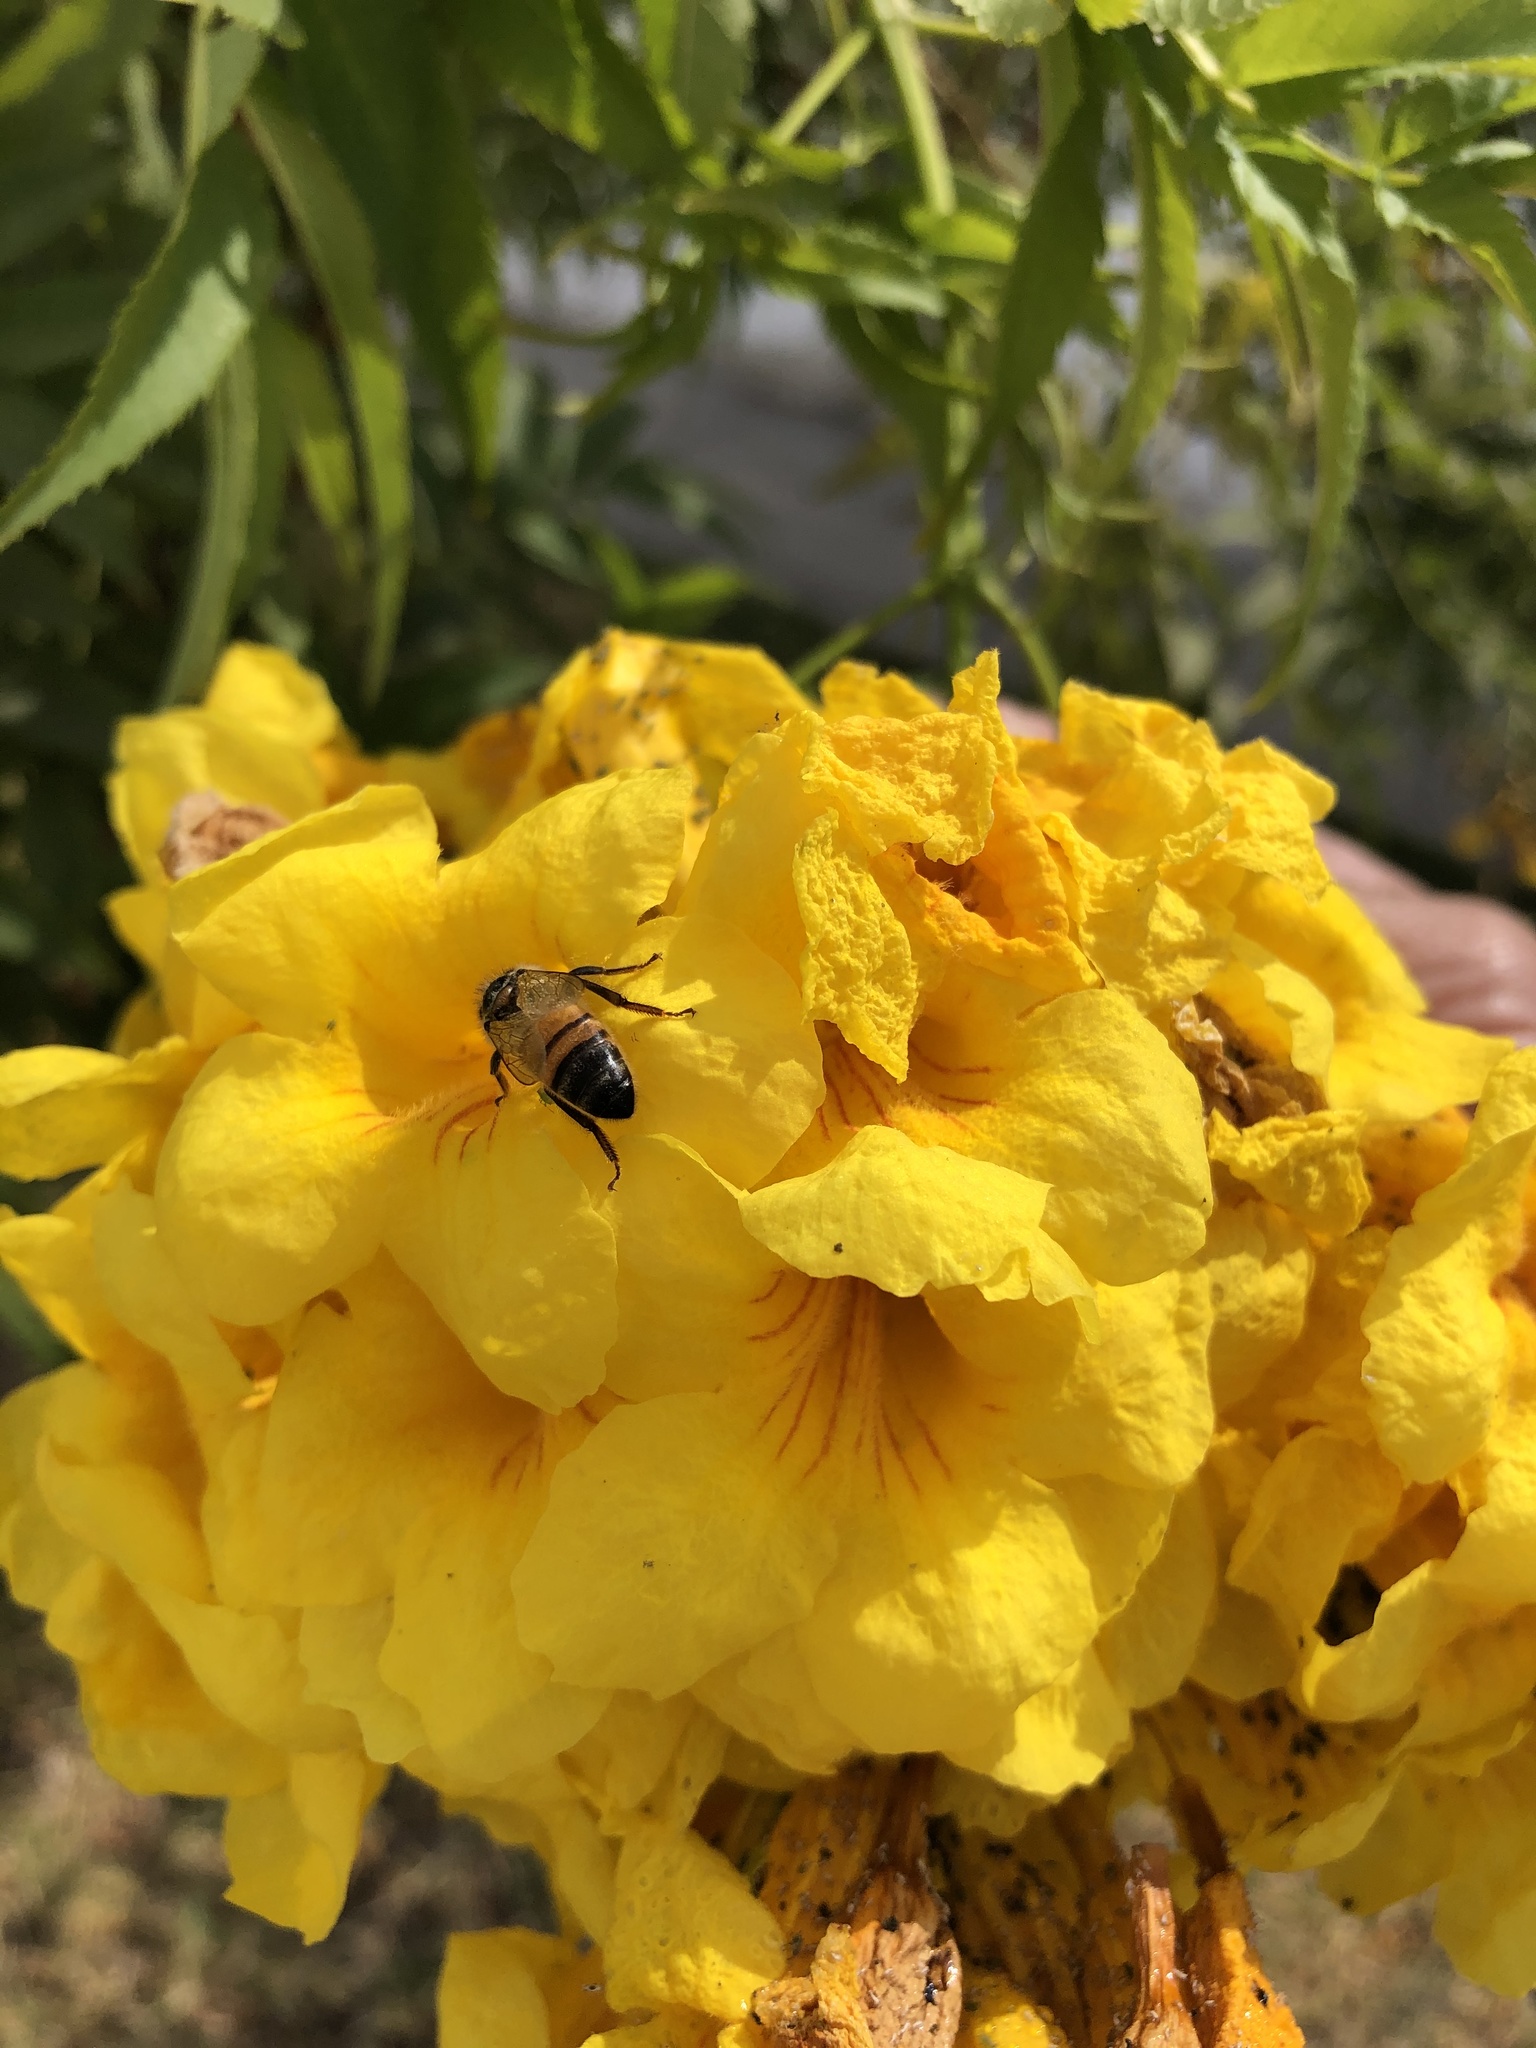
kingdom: Animalia
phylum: Arthropoda
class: Insecta
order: Hymenoptera
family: Apidae
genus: Apis
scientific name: Apis mellifera
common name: Honey bee
